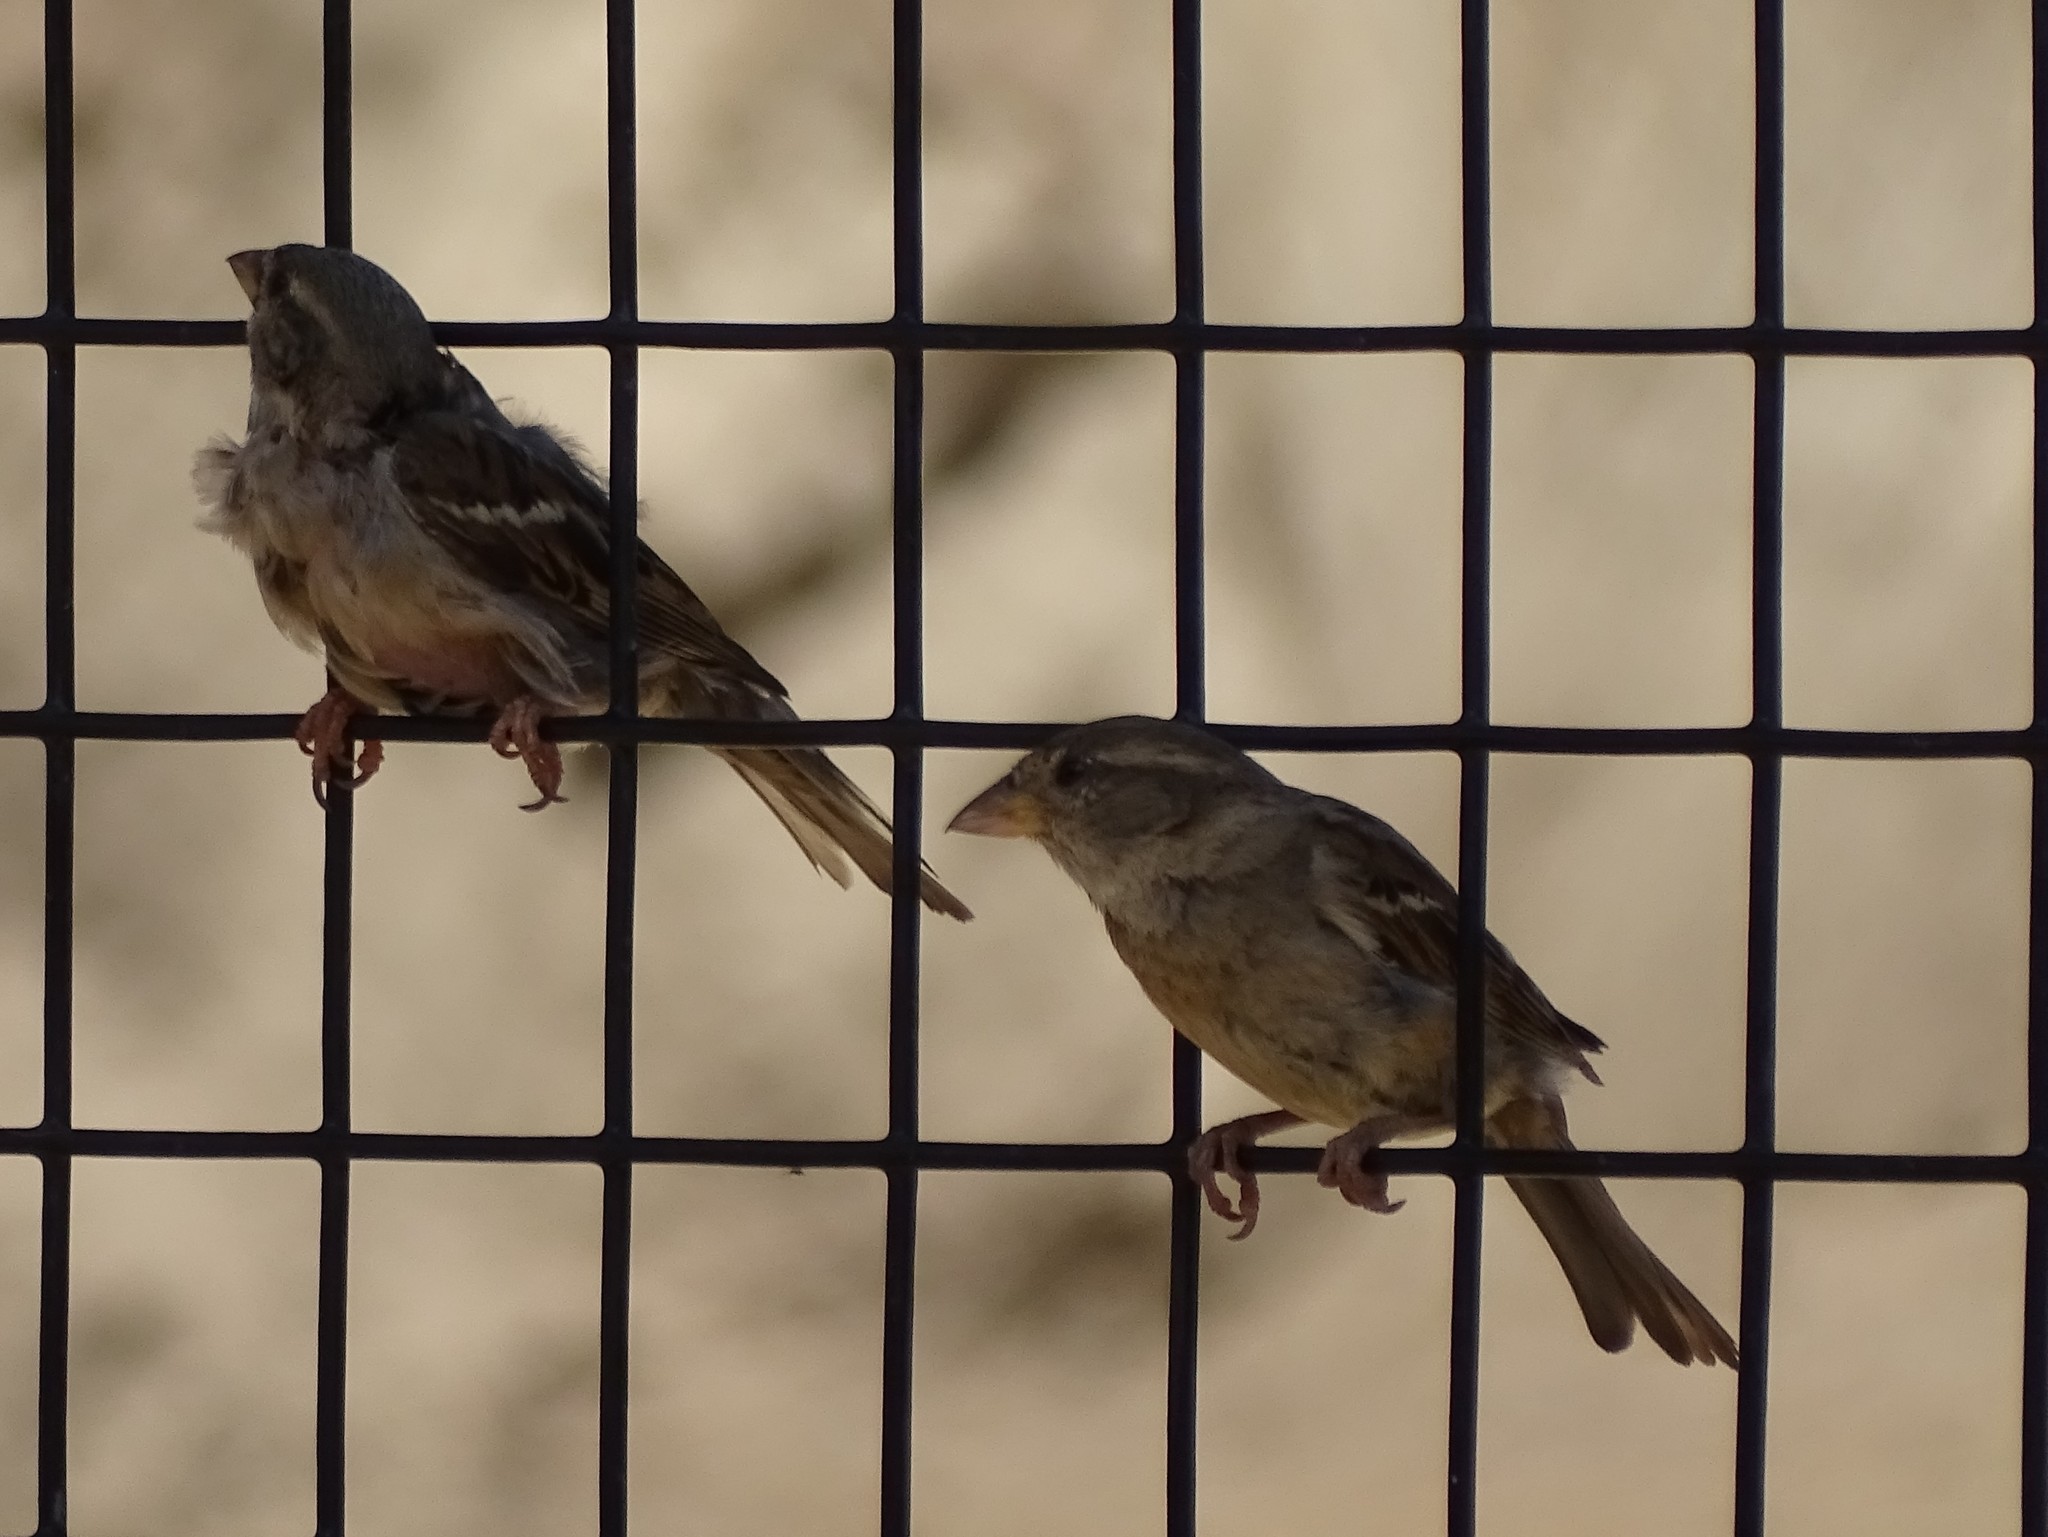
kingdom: Animalia
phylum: Chordata
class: Aves
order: Passeriformes
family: Passeridae
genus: Passer
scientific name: Passer domesticus
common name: House sparrow
